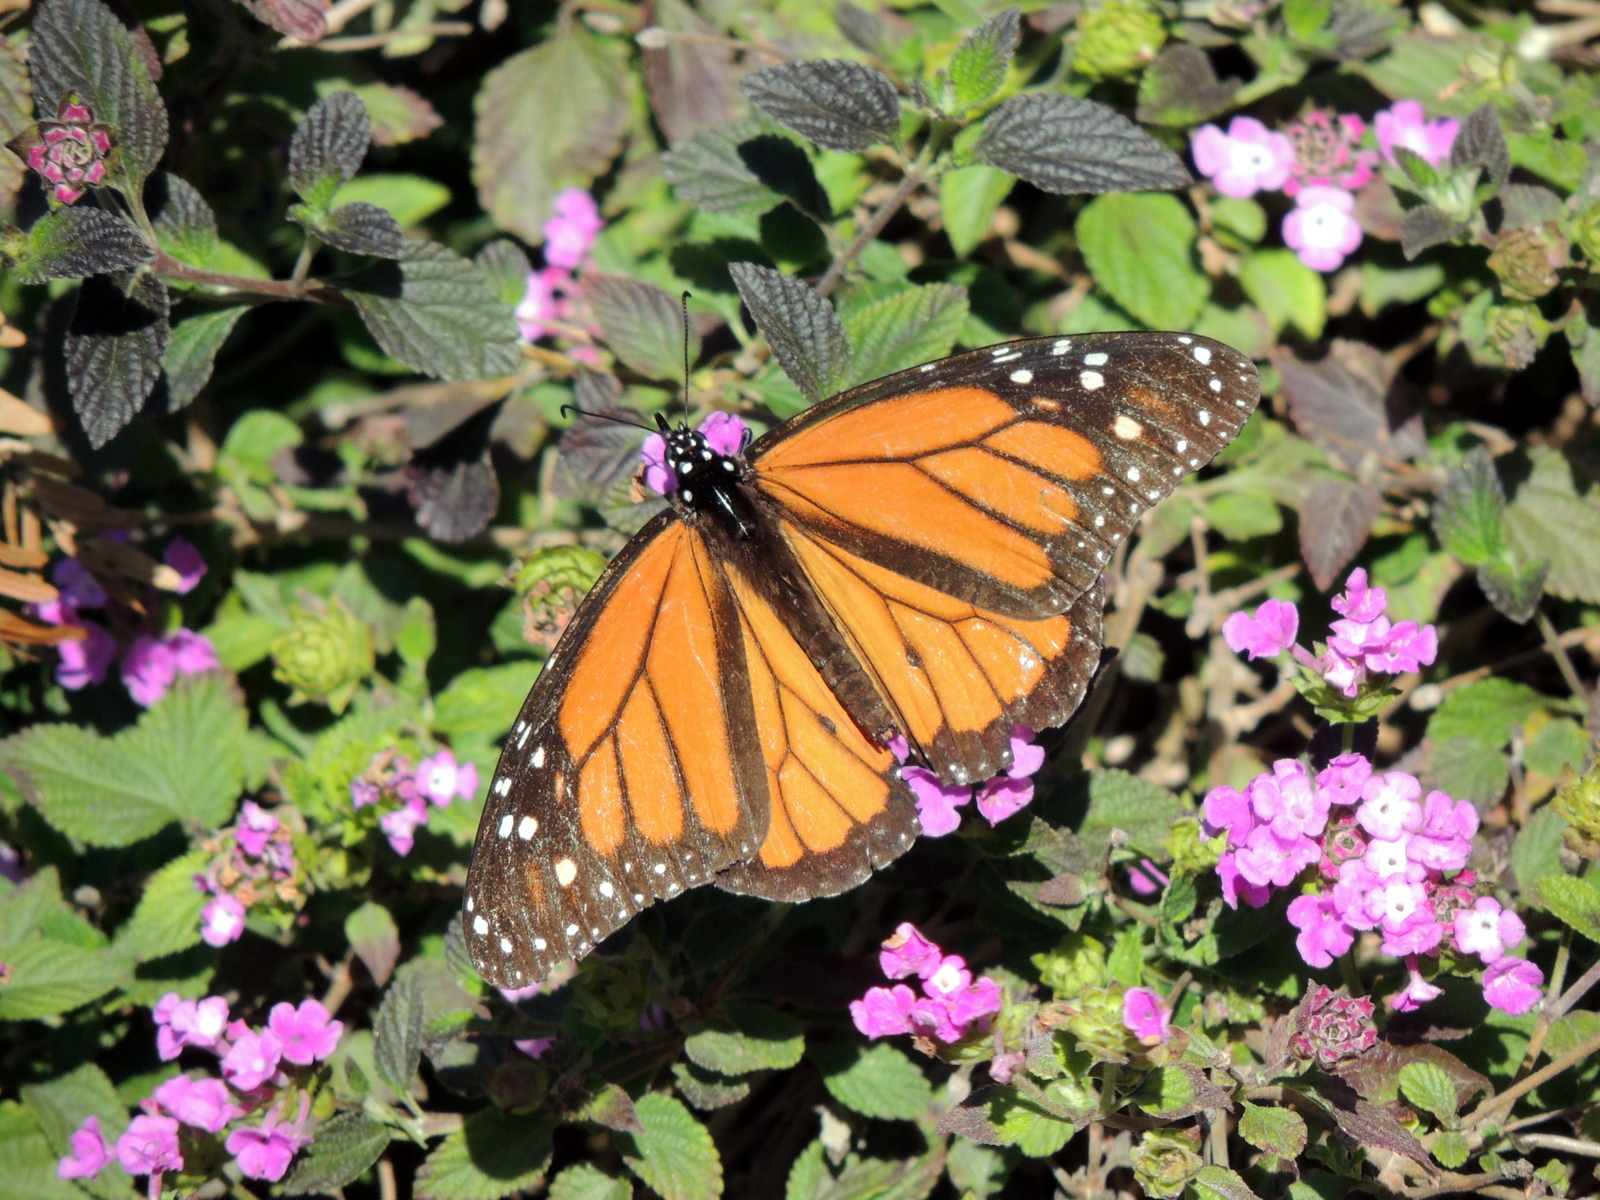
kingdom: Animalia
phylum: Arthropoda
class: Insecta
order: Lepidoptera
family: Nymphalidae
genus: Danaus
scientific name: Danaus plexippus
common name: Monarch
